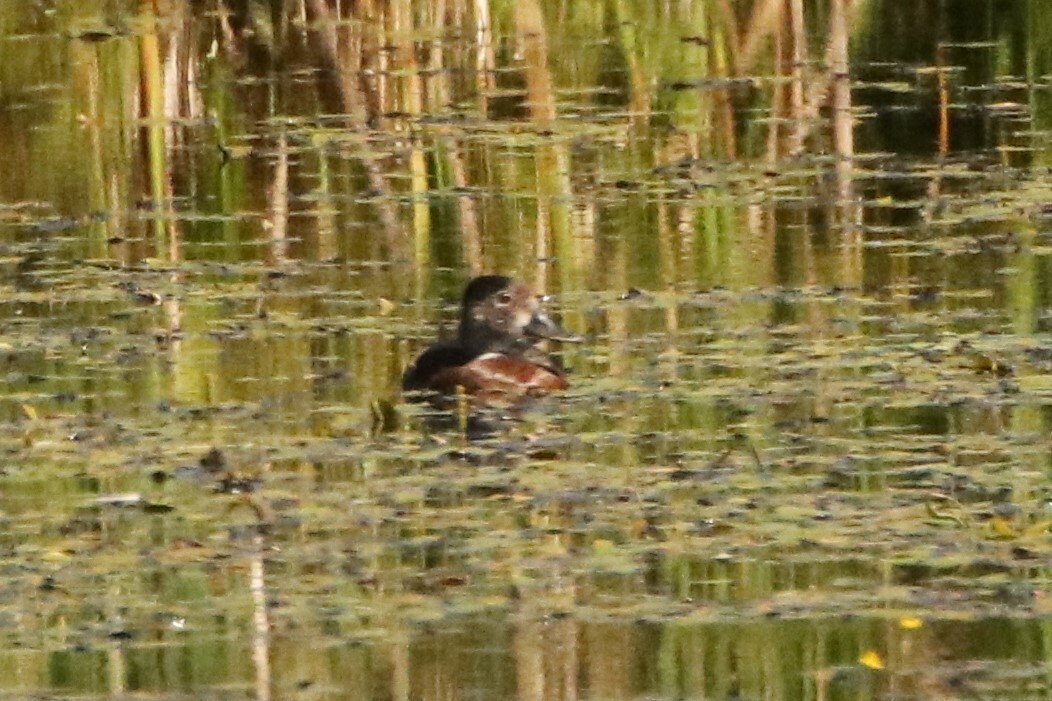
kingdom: Animalia
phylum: Chordata
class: Aves
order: Anseriformes
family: Anatidae
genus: Aythya
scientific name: Aythya collaris
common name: Ring-necked duck
